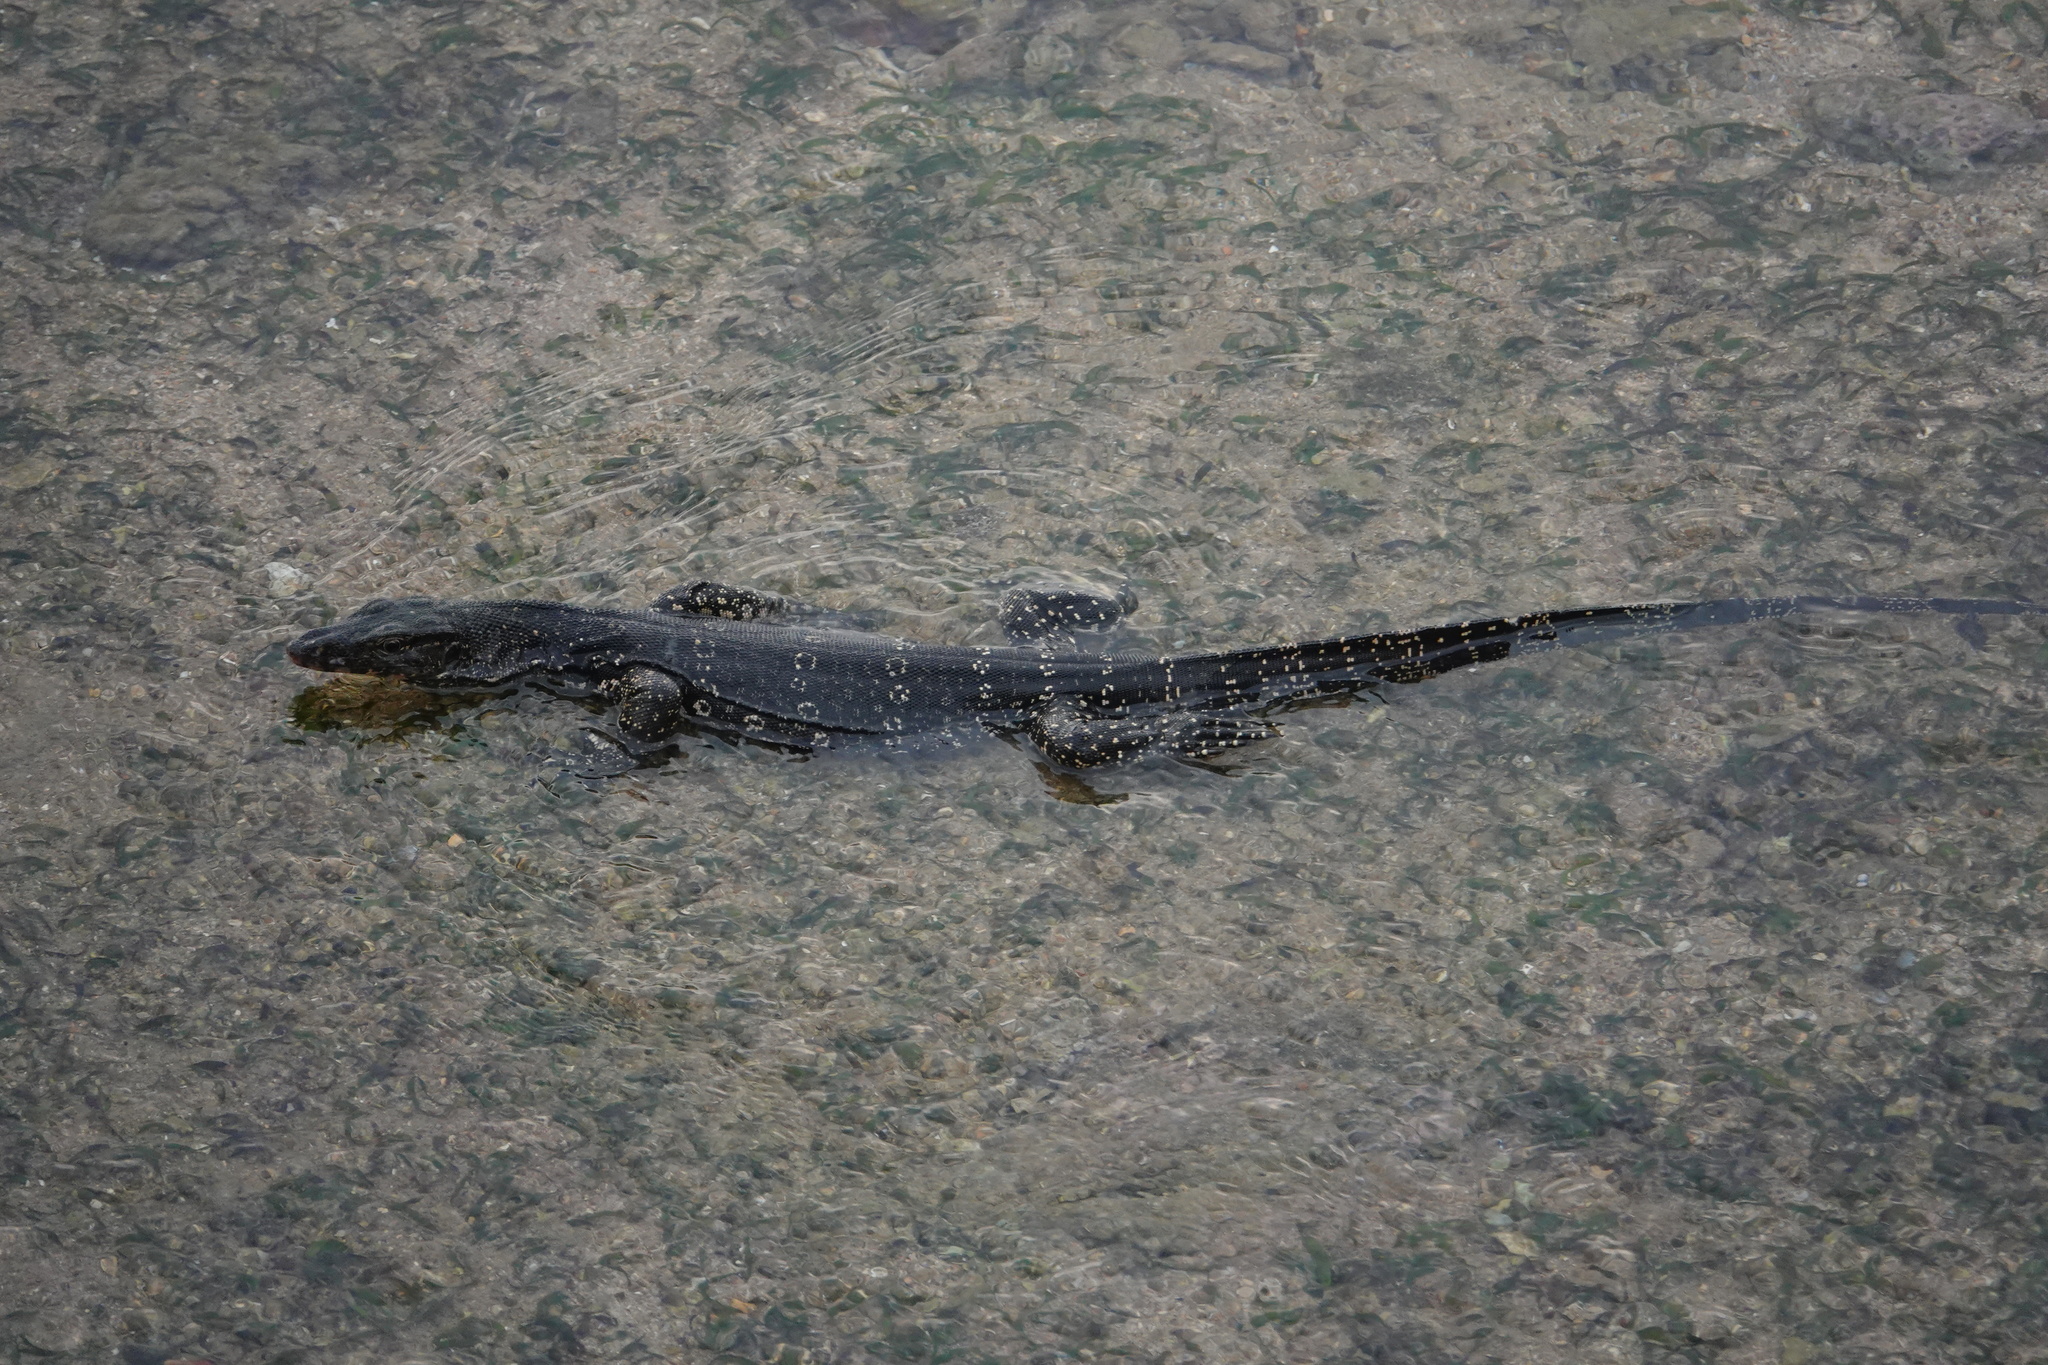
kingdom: Animalia
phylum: Chordata
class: Squamata
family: Varanidae
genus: Varanus
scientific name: Varanus salvator
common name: Common water monitor
